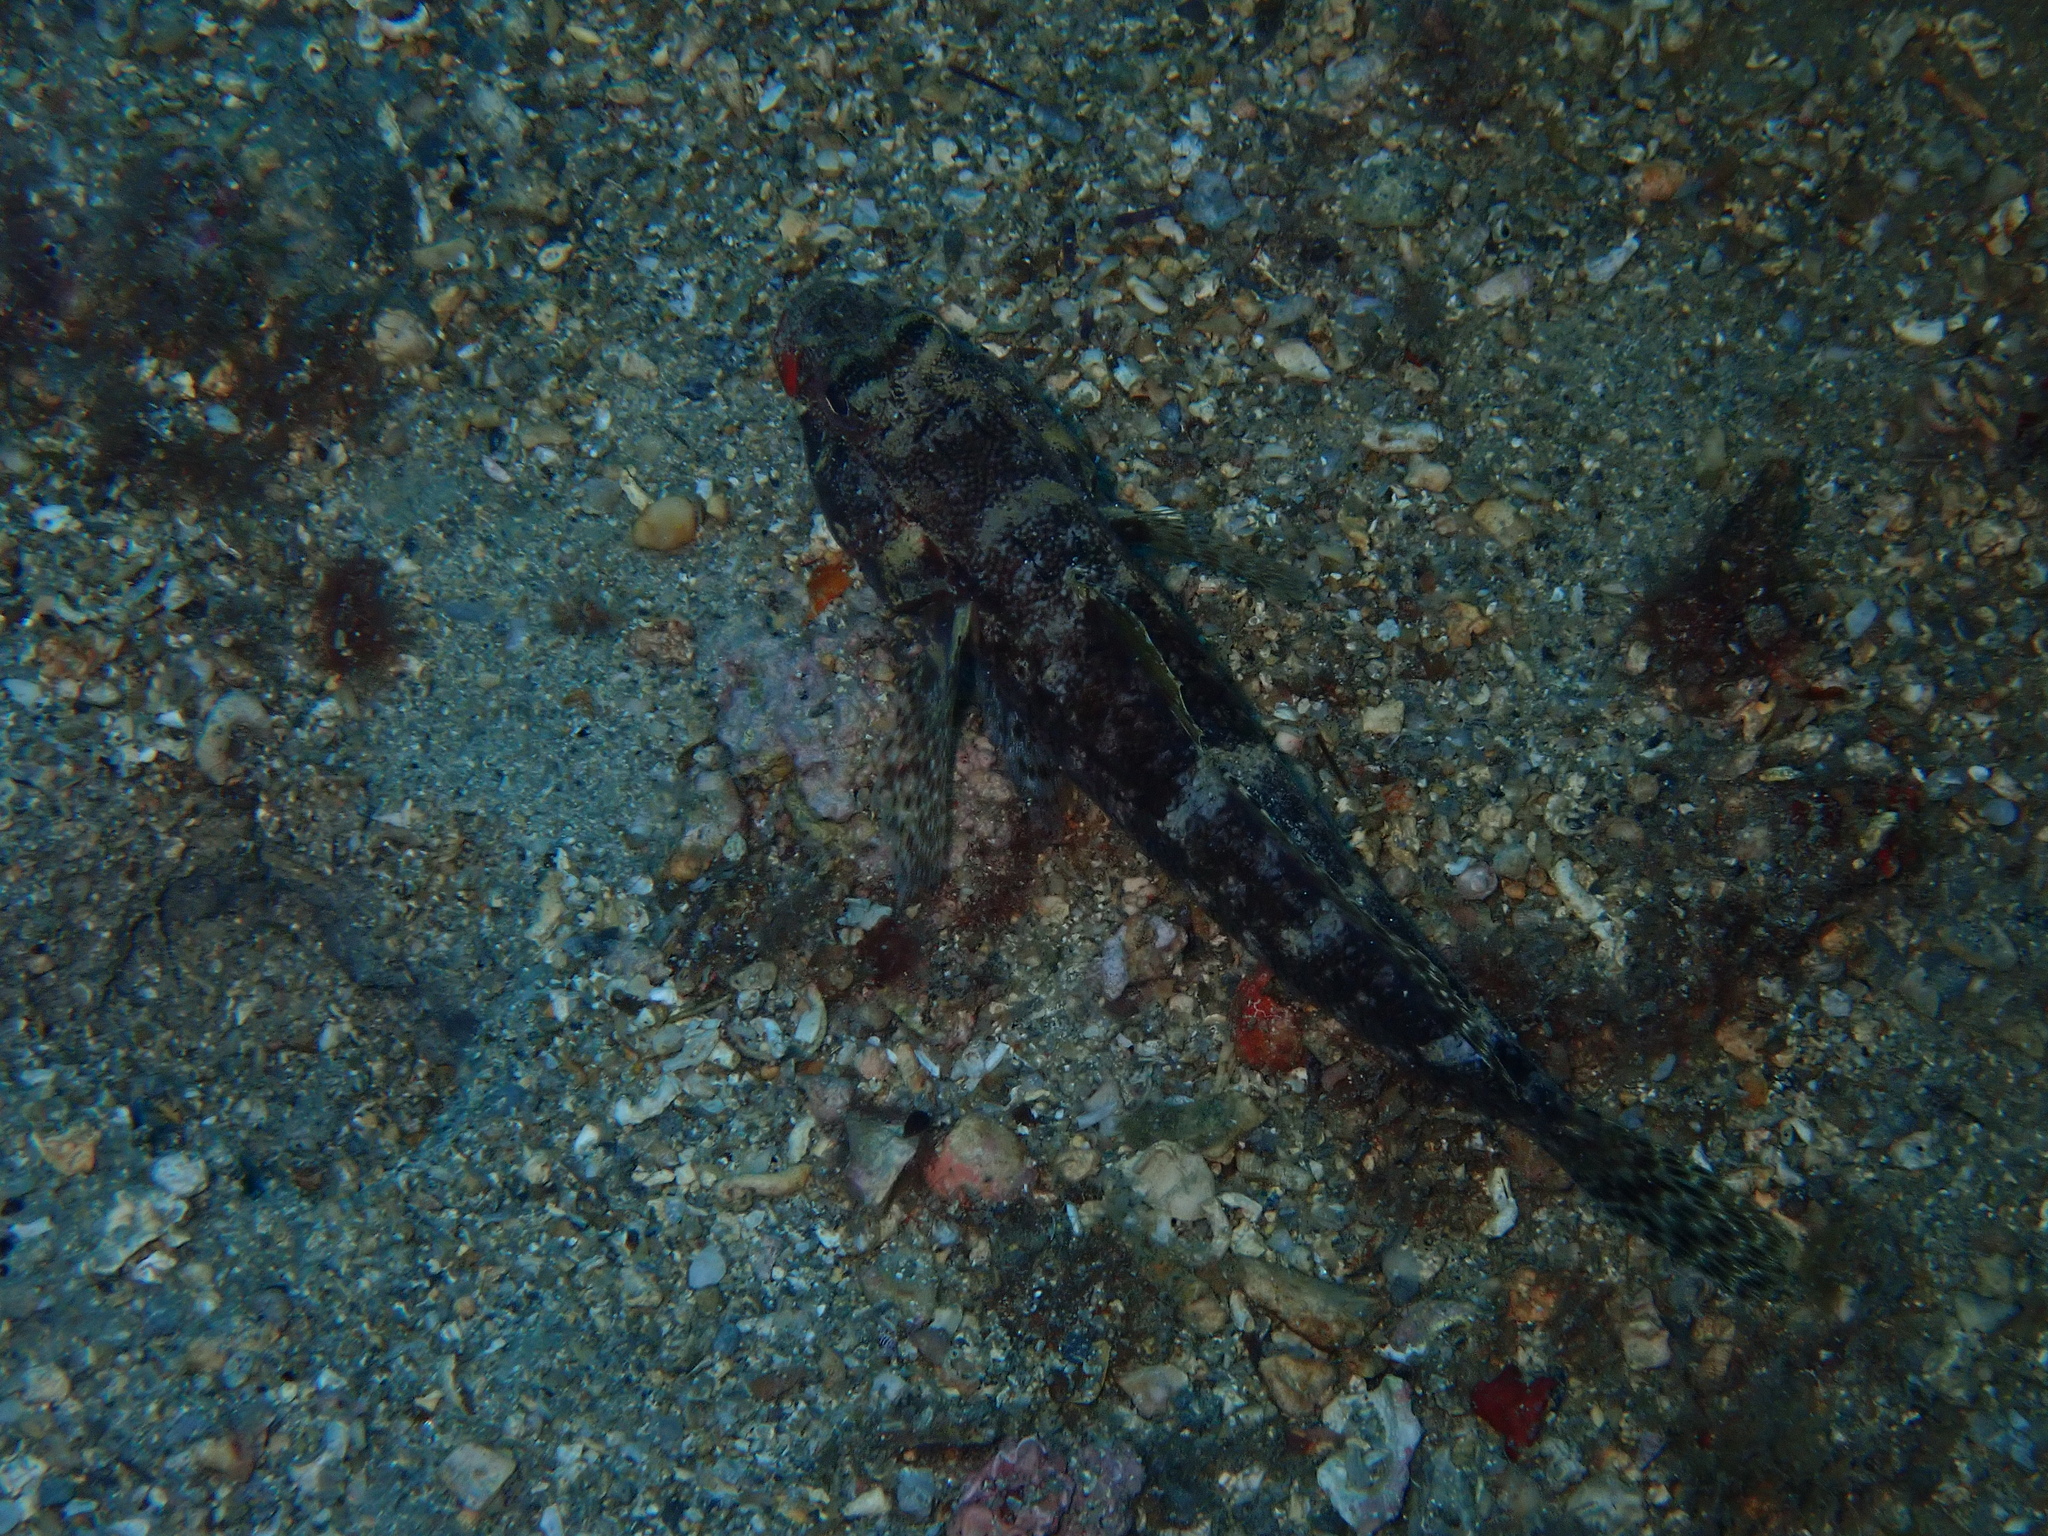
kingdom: Animalia
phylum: Chordata
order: Perciformes
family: Gobiidae
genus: Gobius
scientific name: Gobius cruentatus
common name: Red-mouthed goby
